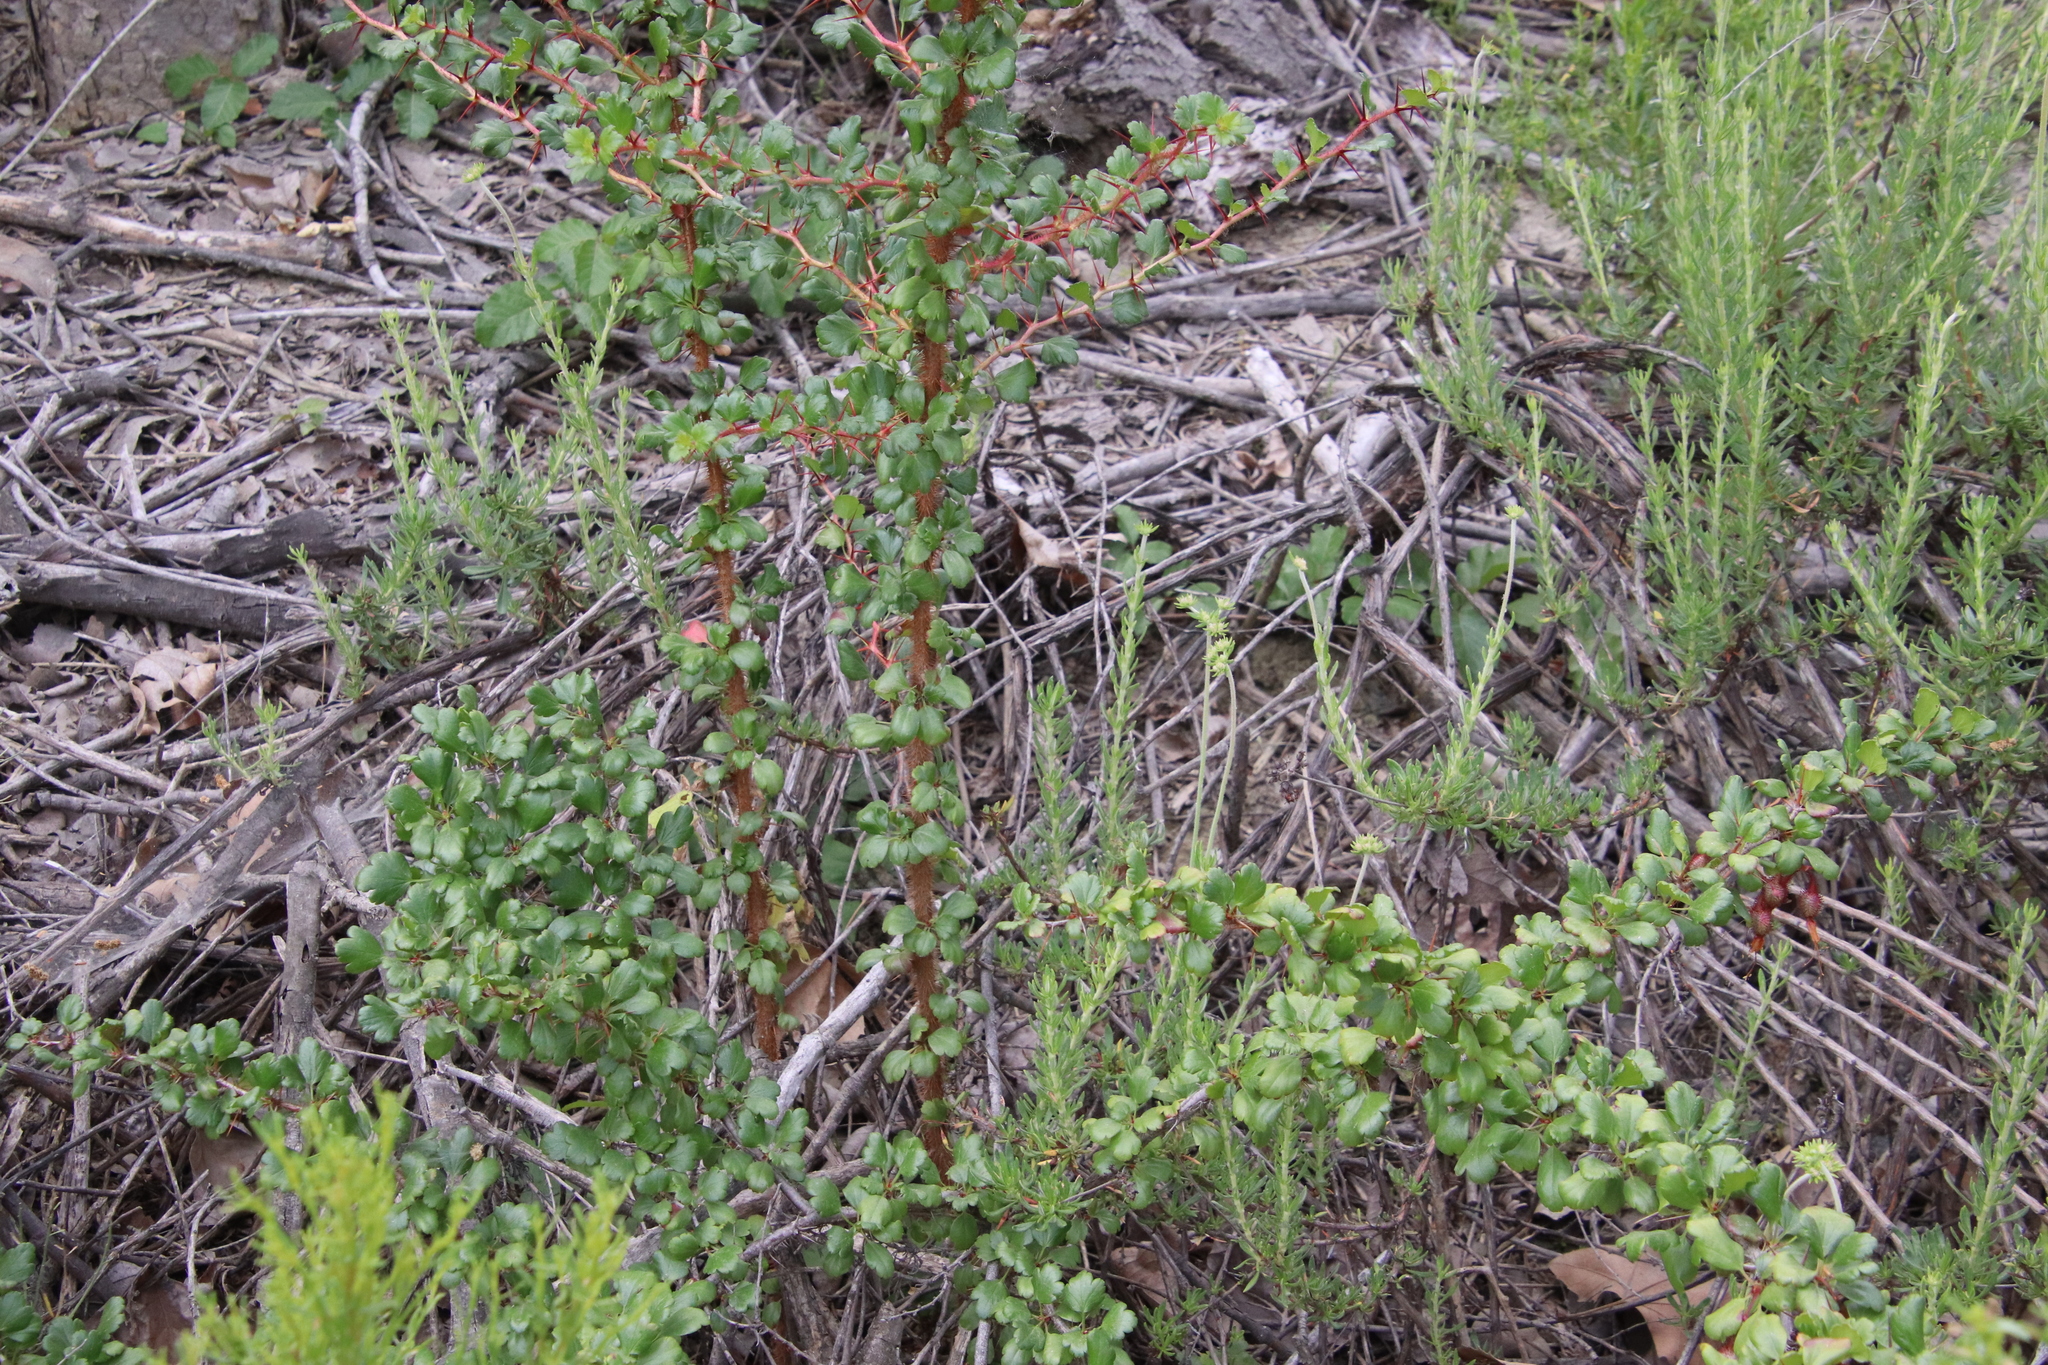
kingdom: Plantae
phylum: Tracheophyta
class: Magnoliopsida
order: Saxifragales
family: Grossulariaceae
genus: Ribes
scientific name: Ribes speciosum
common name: Fuchsia-flower gooseberry
